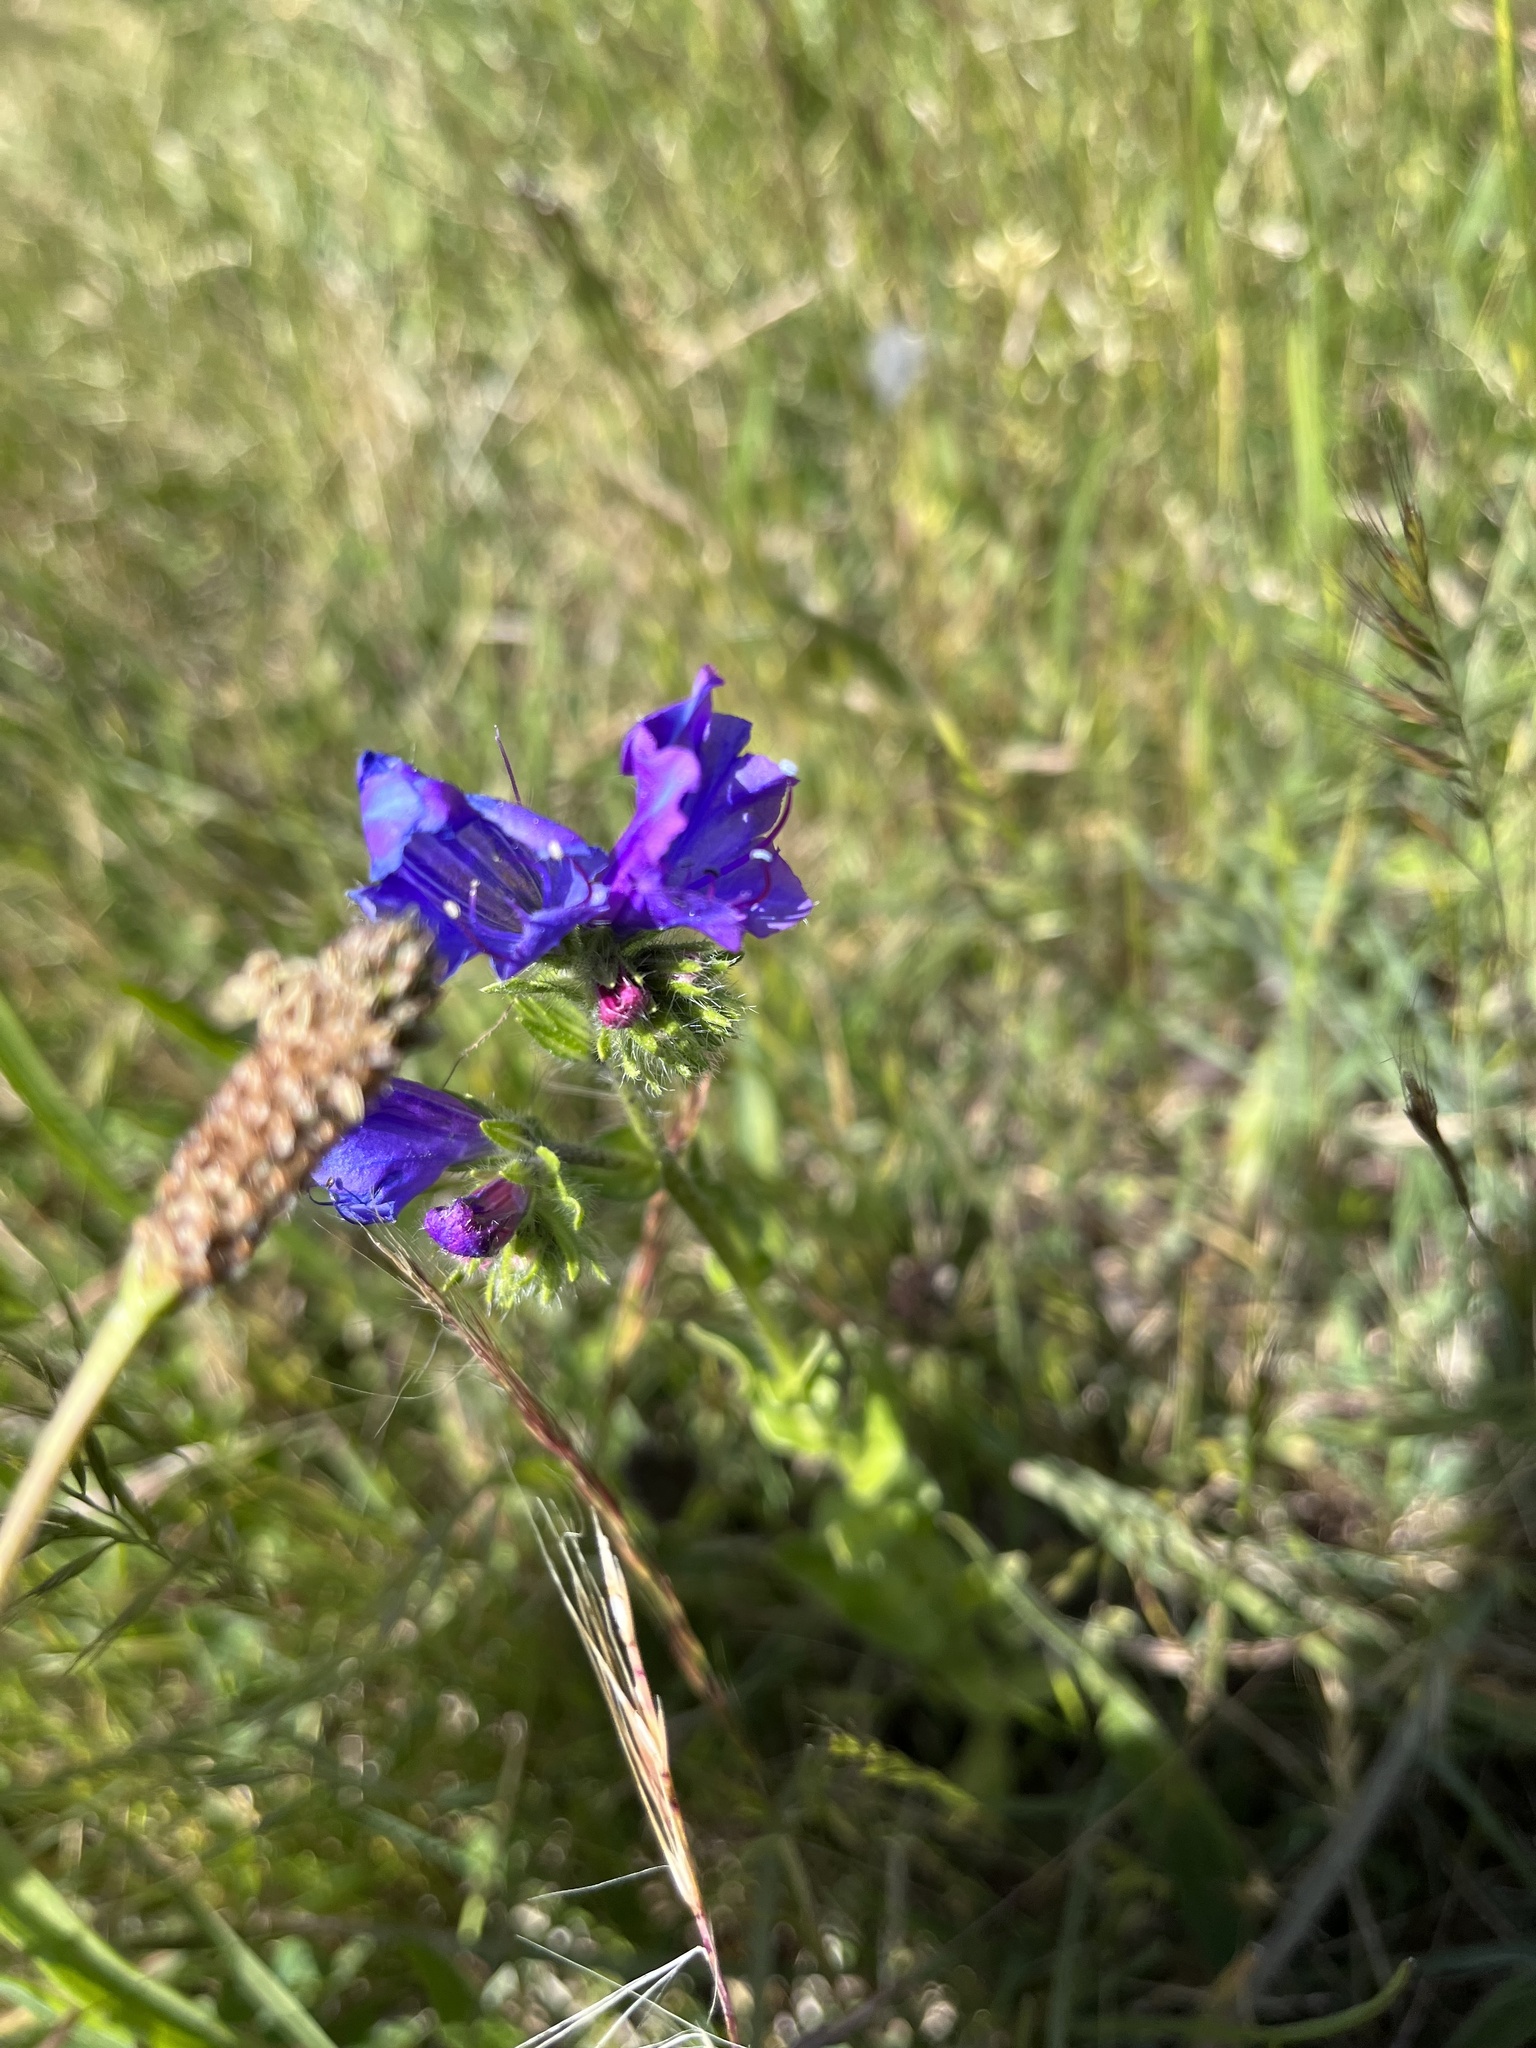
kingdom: Plantae
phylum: Tracheophyta
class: Magnoliopsida
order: Boraginales
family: Boraginaceae
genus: Echium
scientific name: Echium plantagineum
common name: Purple viper's-bugloss
